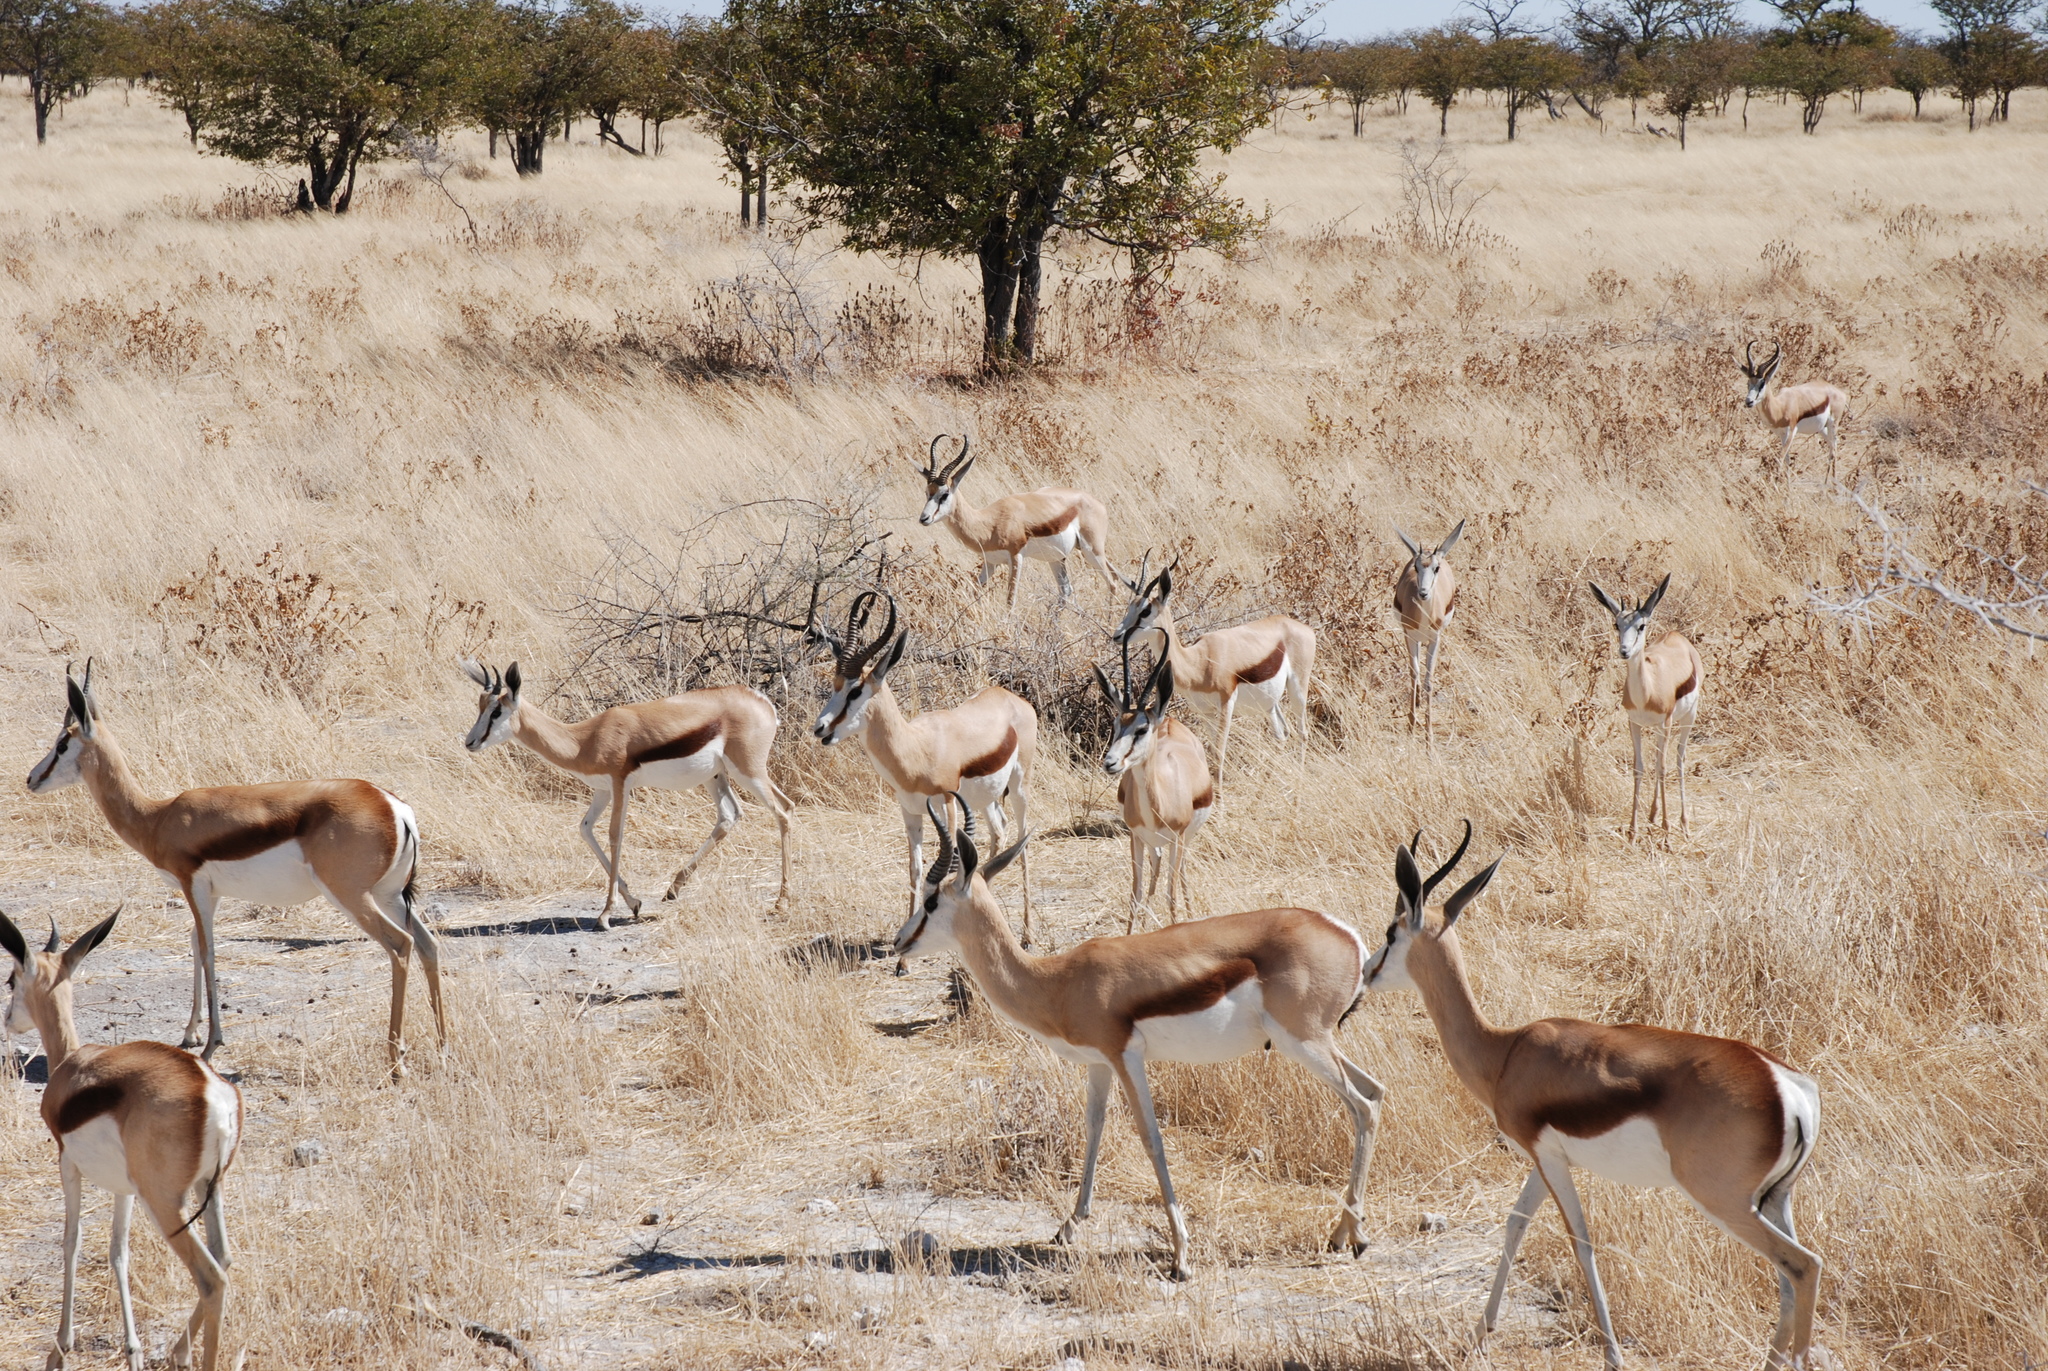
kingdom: Animalia
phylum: Chordata
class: Mammalia
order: Artiodactyla
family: Bovidae
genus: Antidorcas
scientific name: Antidorcas marsupialis
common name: Springbok
